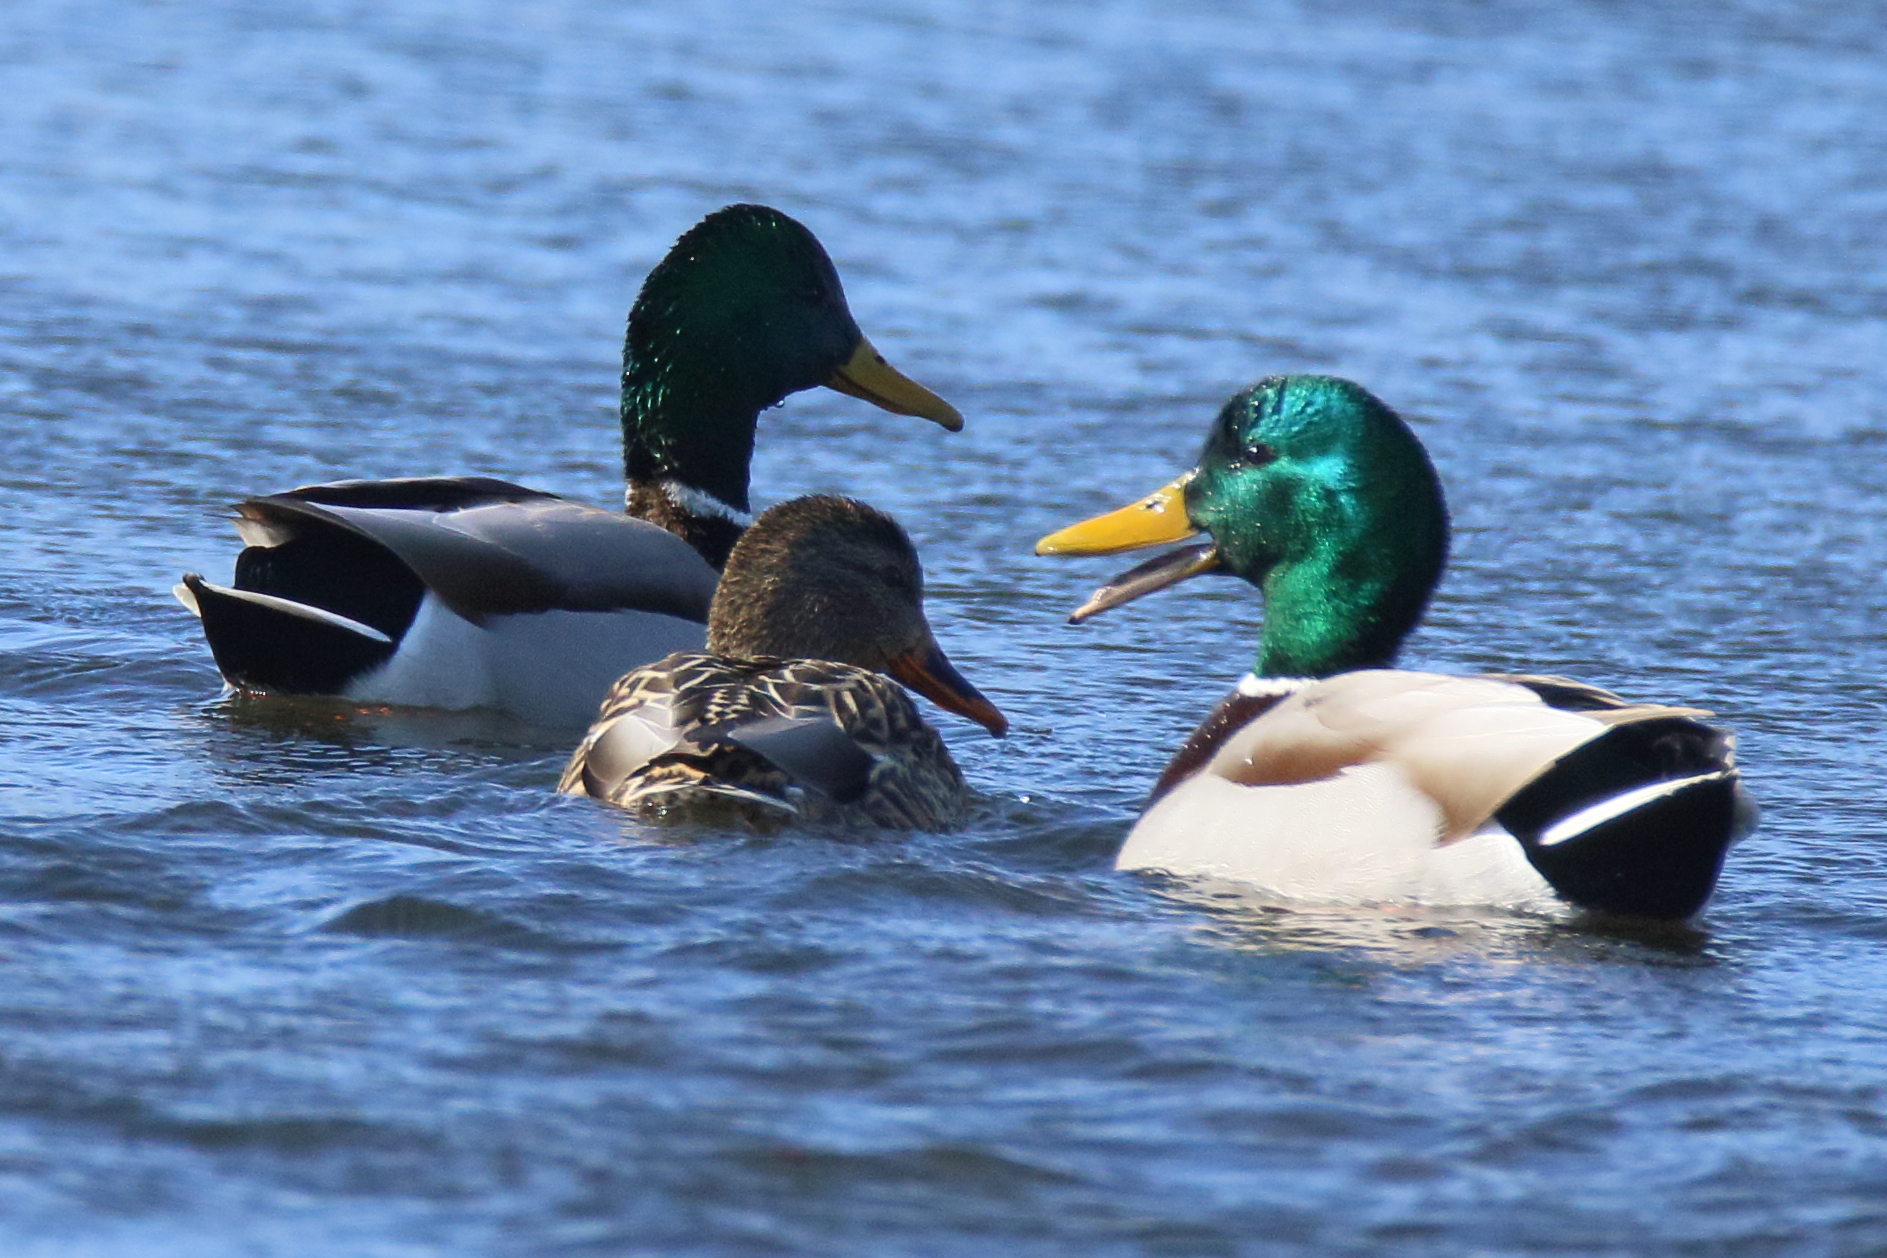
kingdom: Animalia
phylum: Chordata
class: Aves
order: Anseriformes
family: Anatidae
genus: Anas
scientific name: Anas platyrhynchos
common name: Mallard
